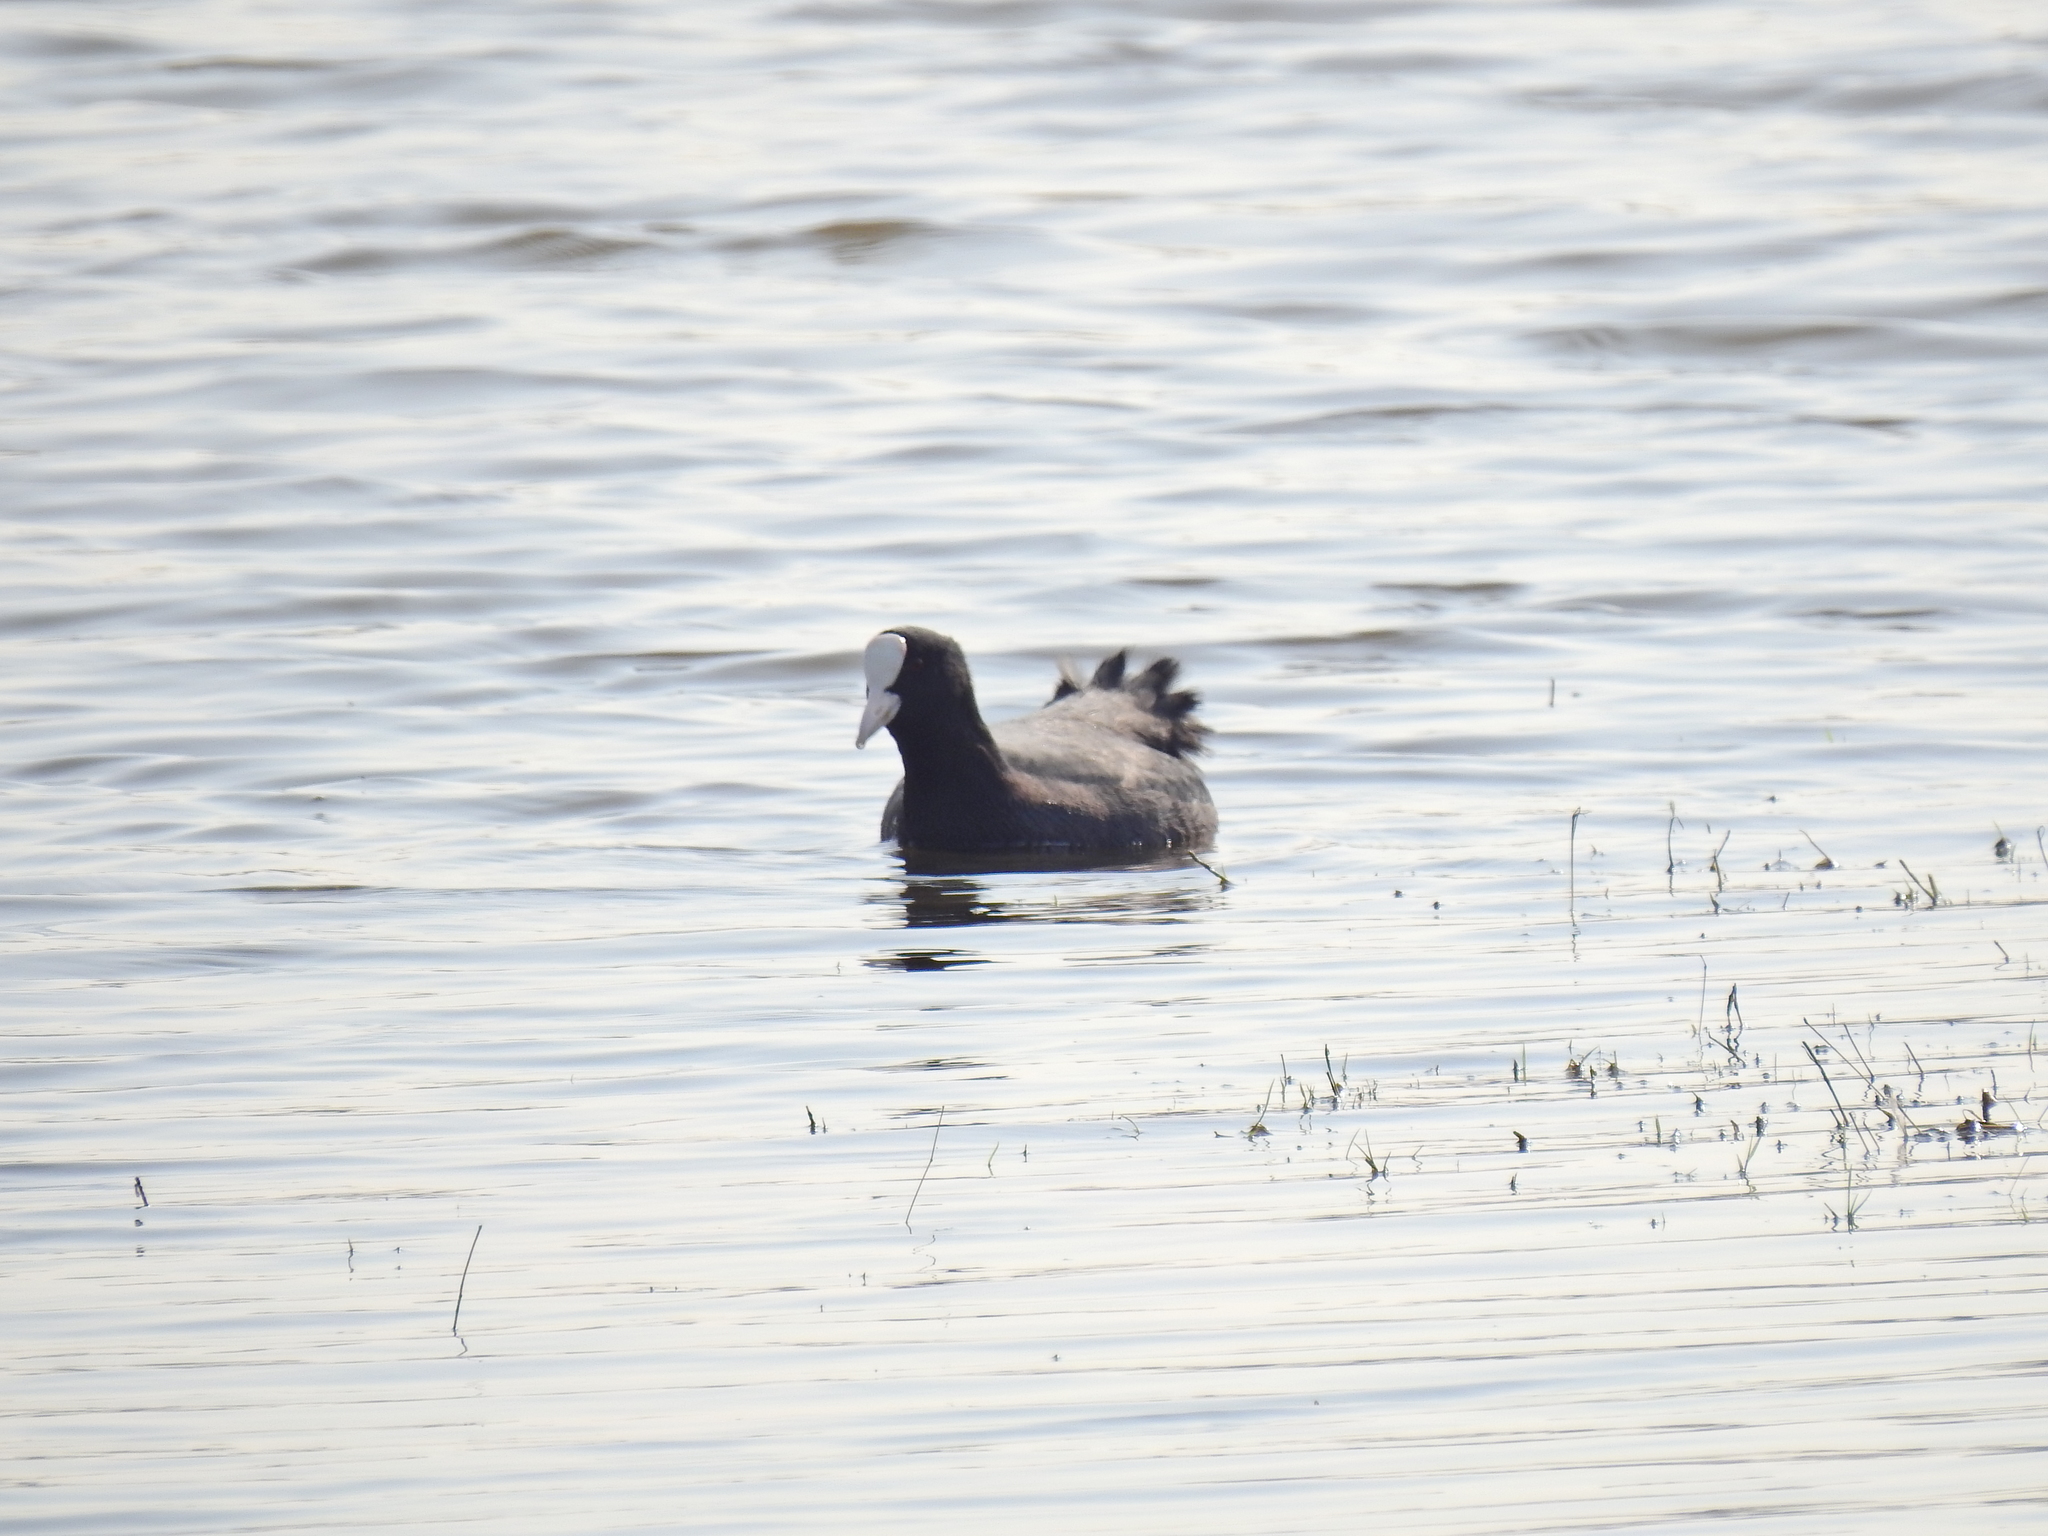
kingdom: Animalia
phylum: Chordata
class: Aves
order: Gruiformes
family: Rallidae
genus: Fulica
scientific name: Fulica atra
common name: Eurasian coot
